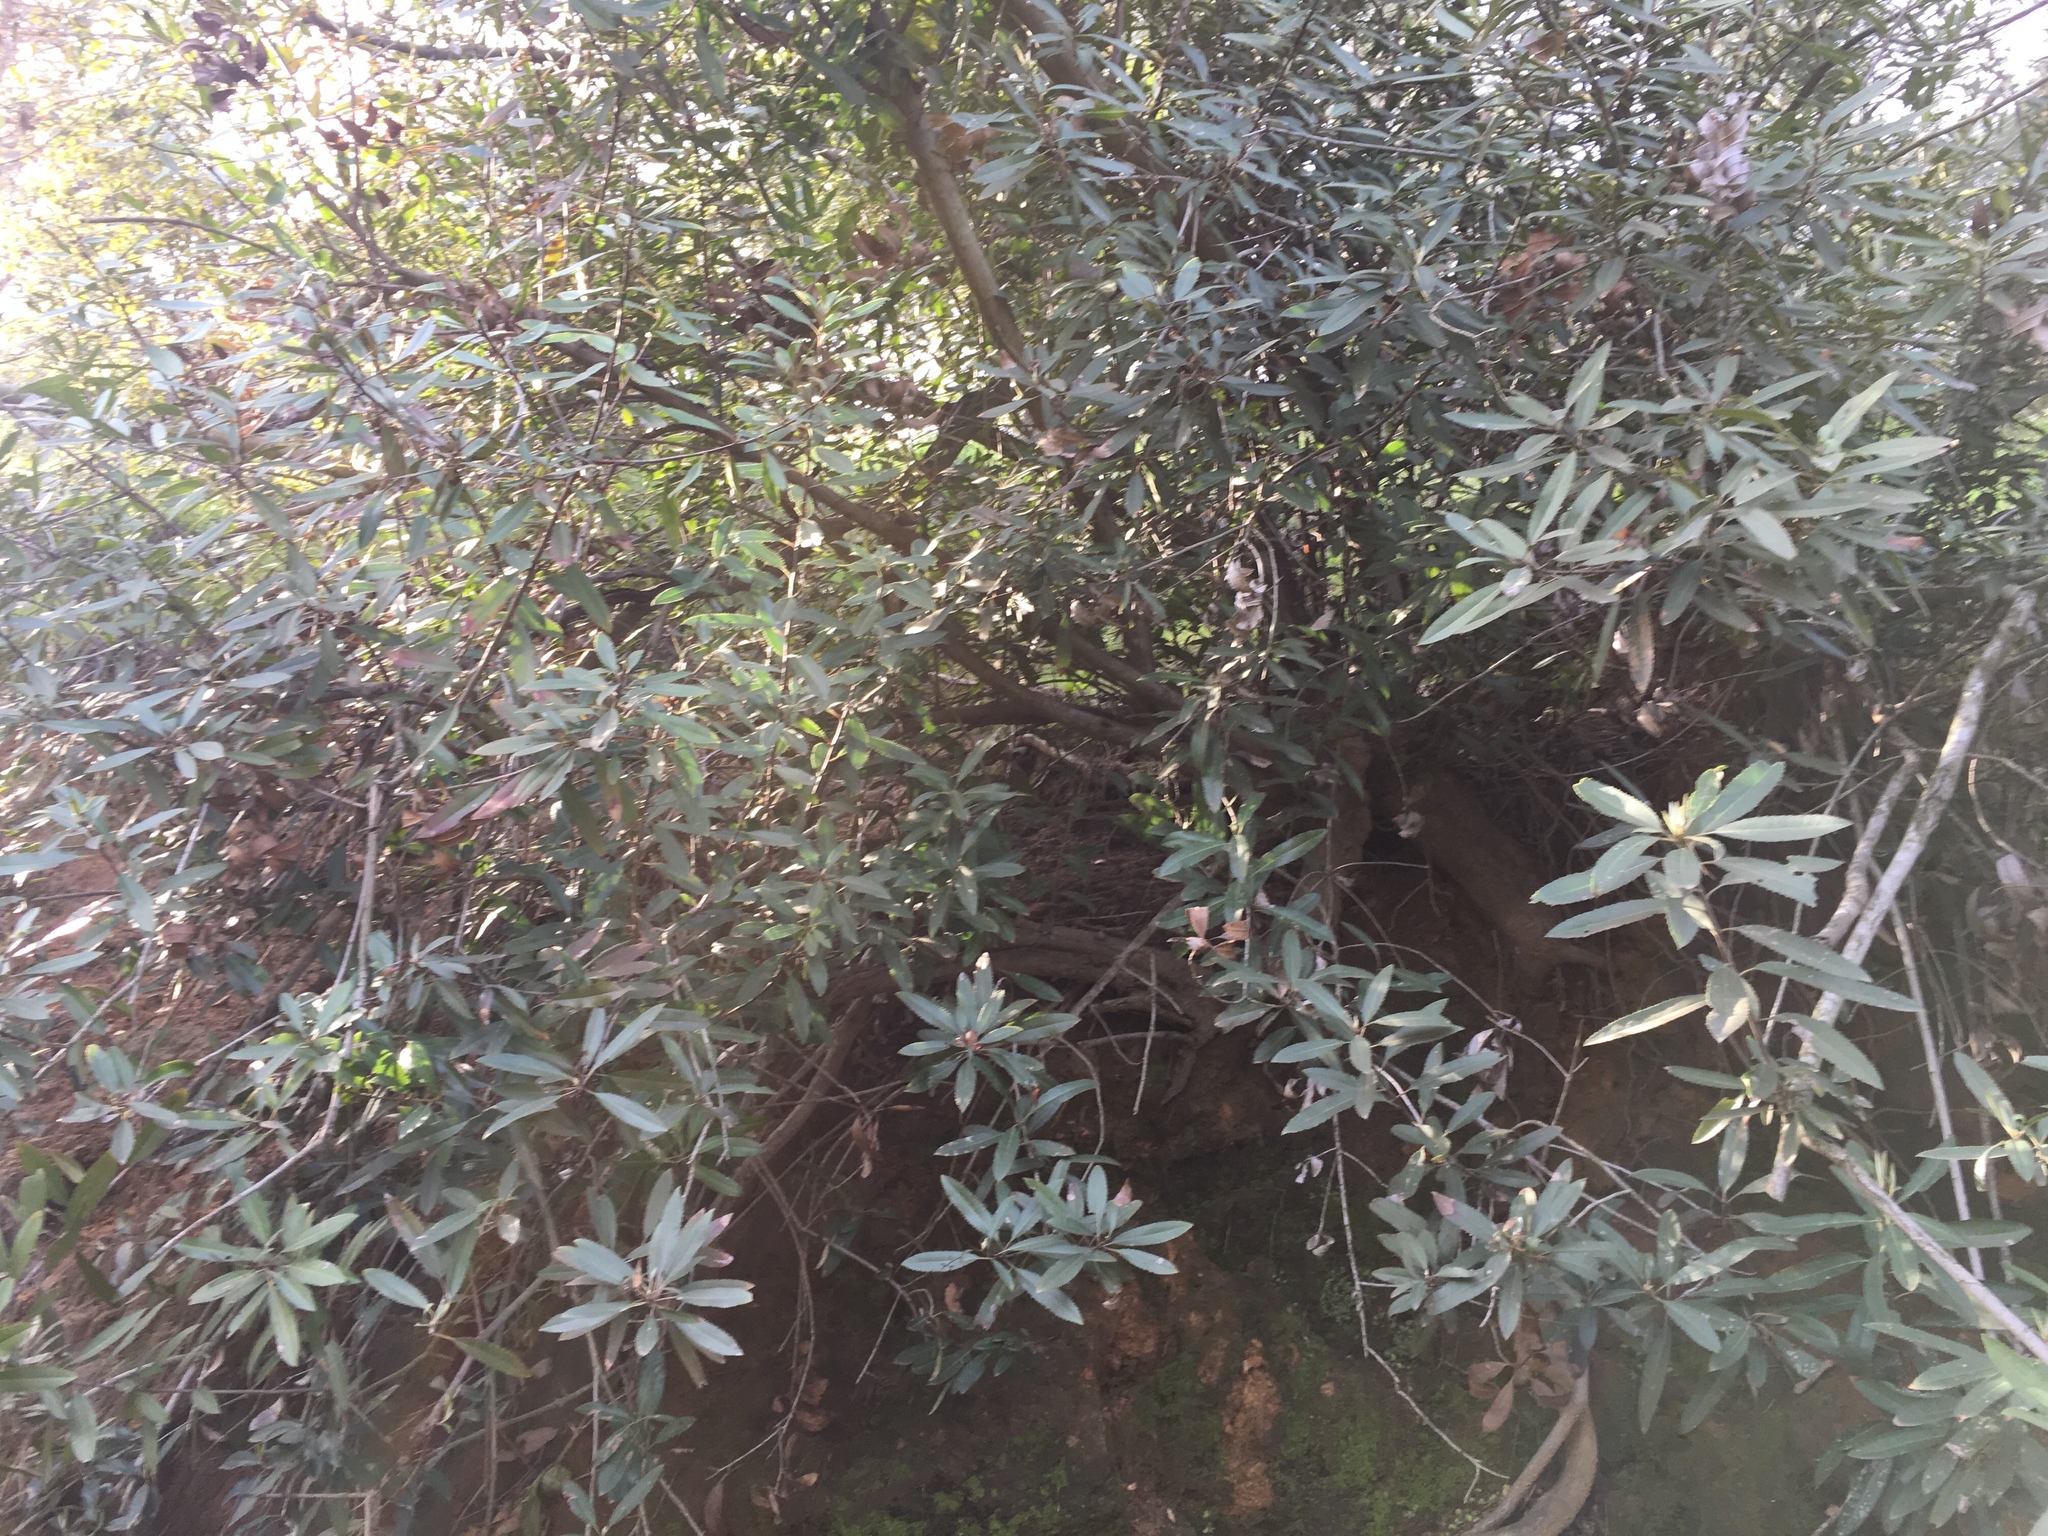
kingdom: Plantae
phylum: Tracheophyta
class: Magnoliopsida
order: Rosales
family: Rosaceae
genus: Heteromeles
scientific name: Heteromeles arbutifolia
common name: California-holly
